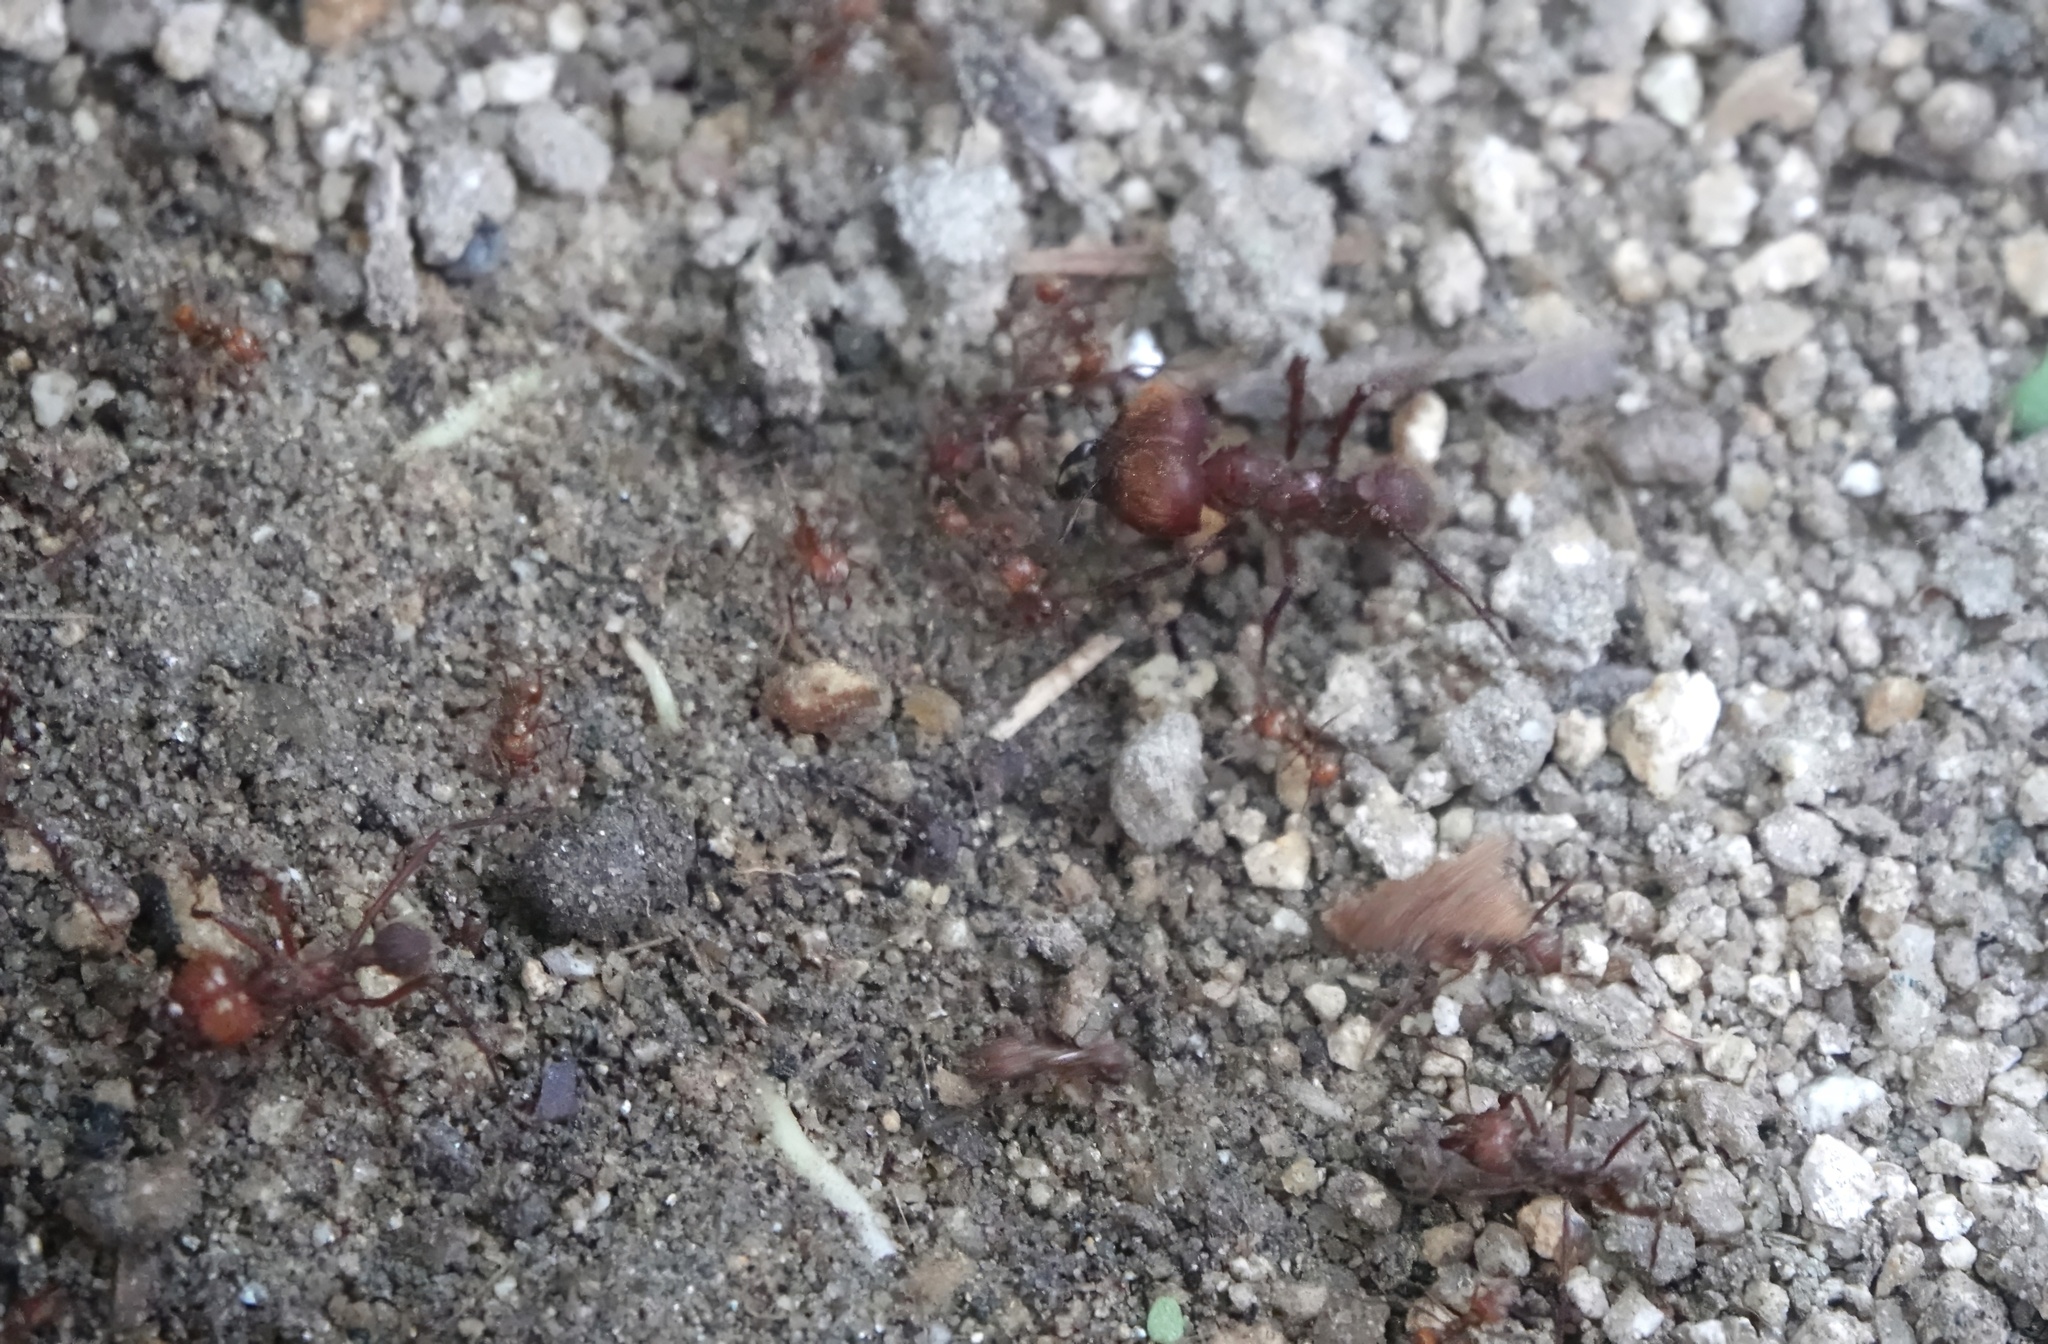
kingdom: Animalia
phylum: Arthropoda
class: Insecta
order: Hymenoptera
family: Formicidae
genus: Atta
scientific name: Atta cephalotes
